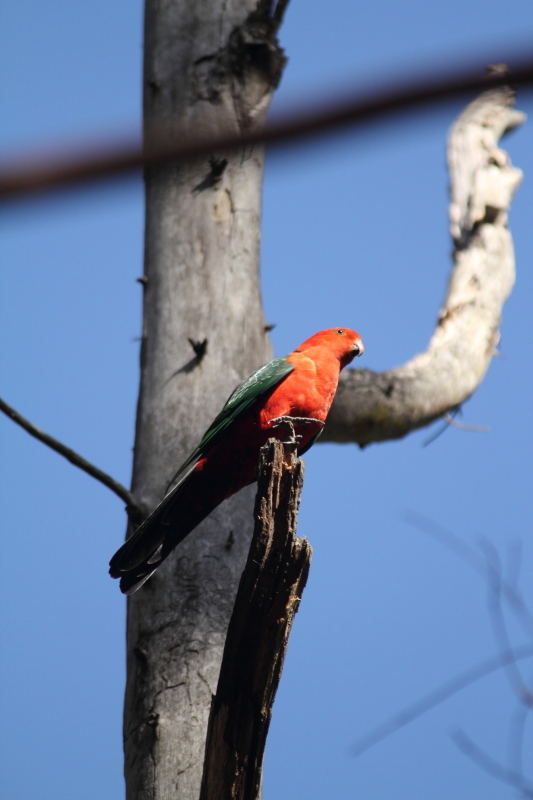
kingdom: Animalia
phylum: Chordata
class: Aves
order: Psittaciformes
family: Psittacidae
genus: Alisterus
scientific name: Alisterus scapularis
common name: Australian king parrot
